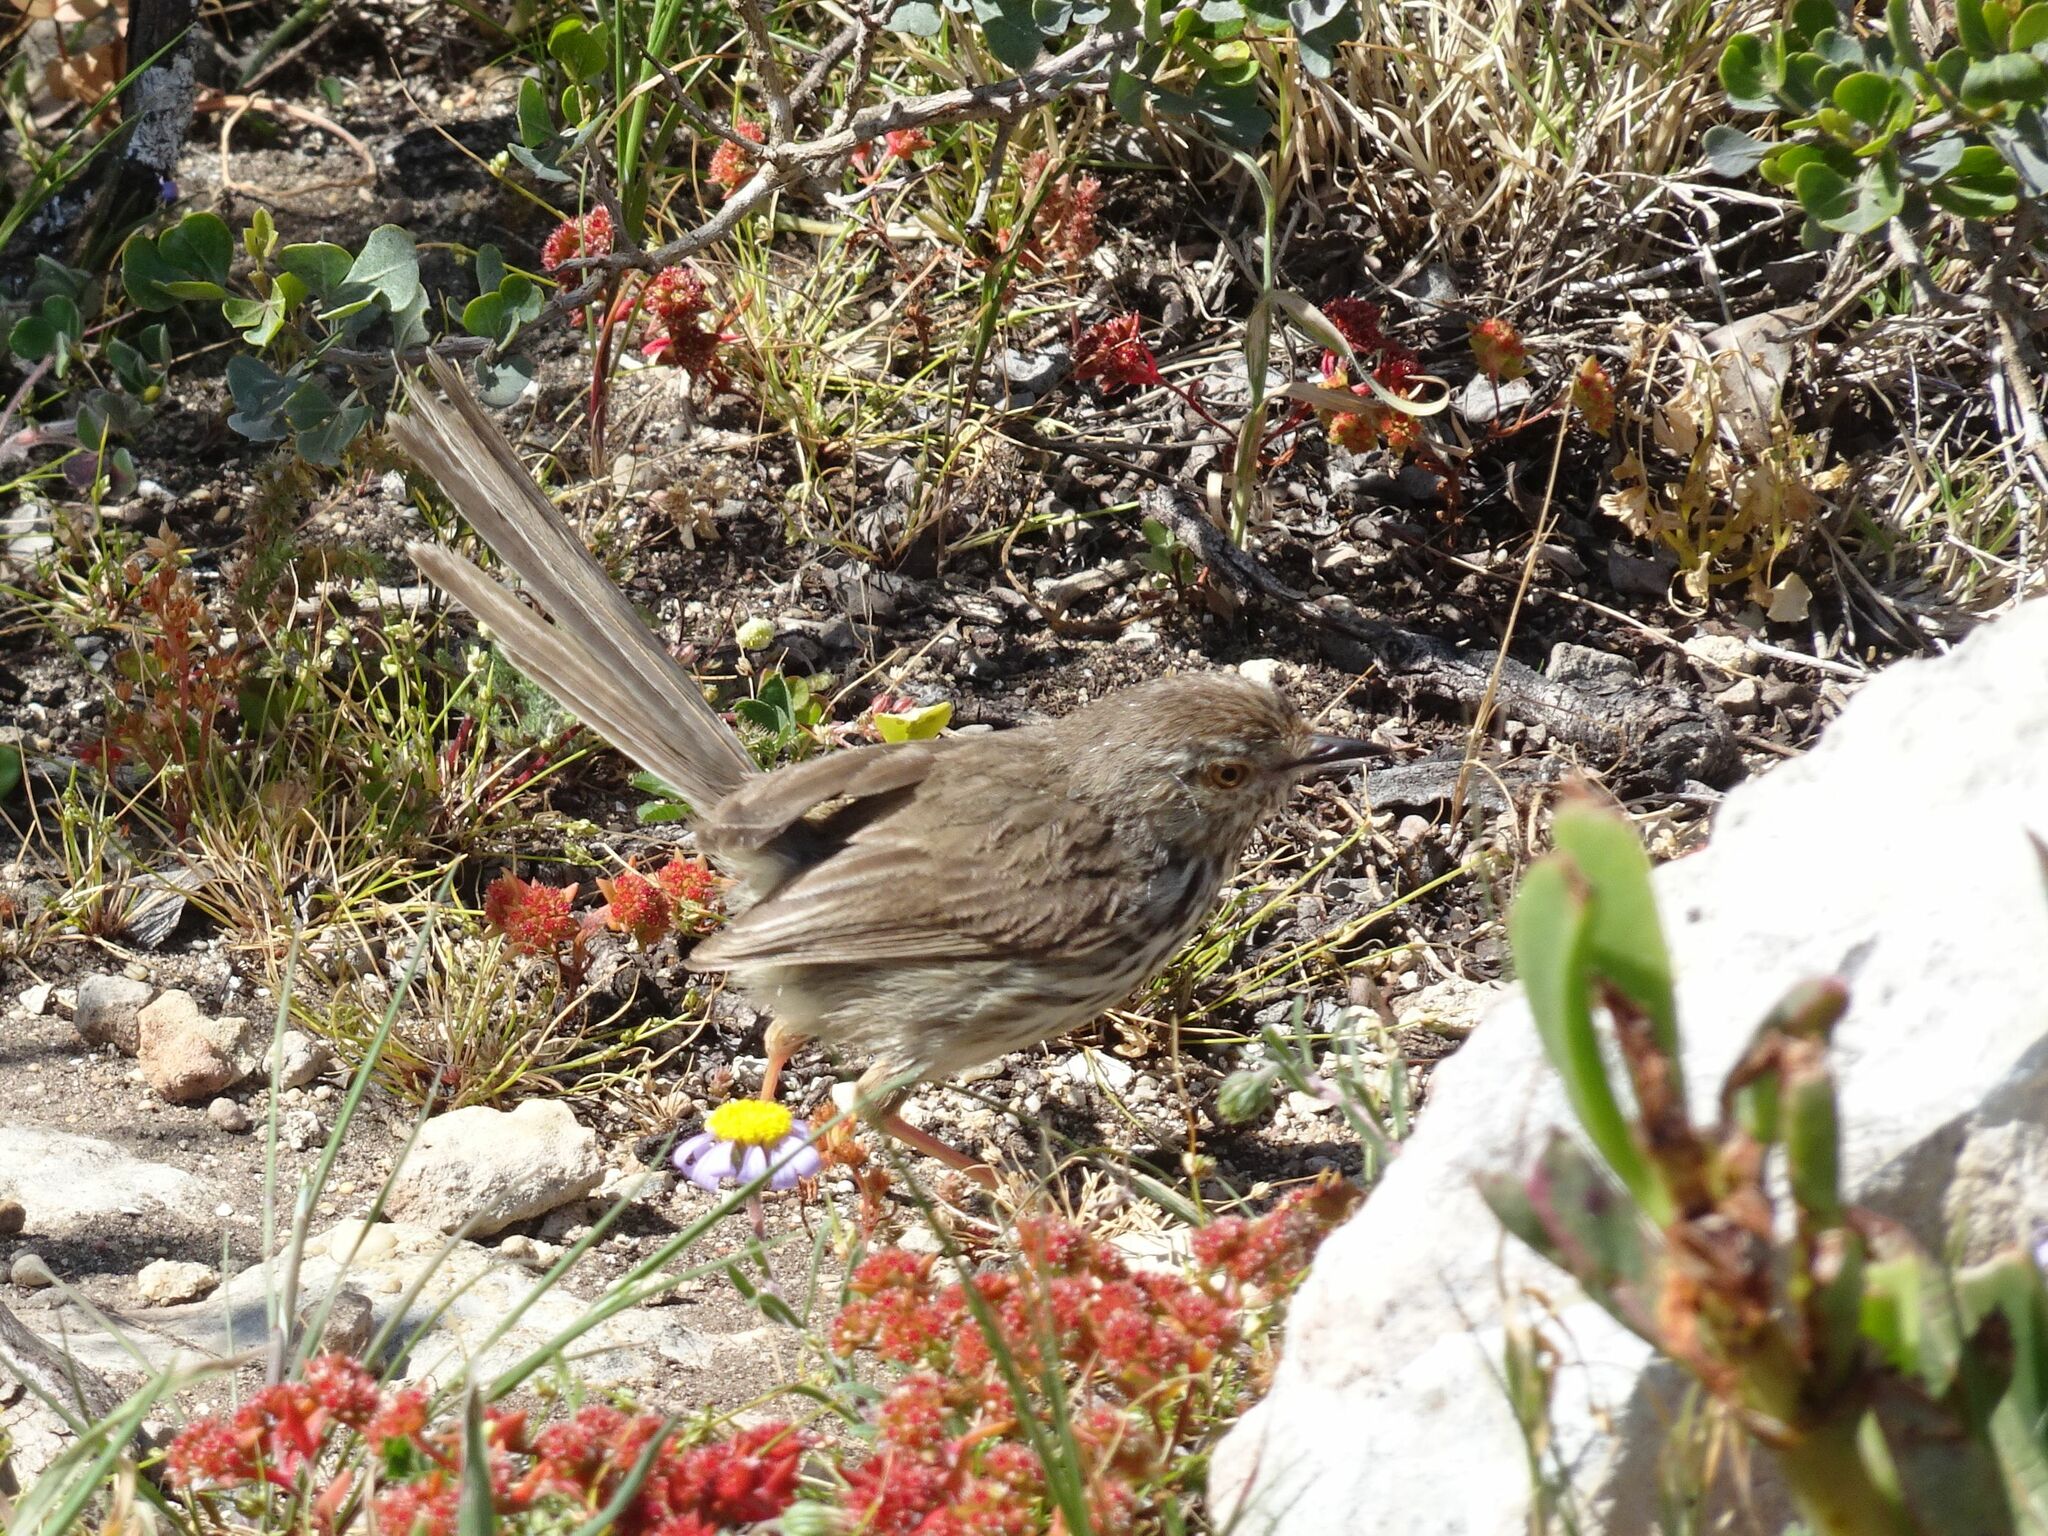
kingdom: Animalia
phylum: Chordata
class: Aves
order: Passeriformes
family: Cisticolidae
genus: Prinia
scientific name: Prinia maculosa
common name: Karoo prinia
